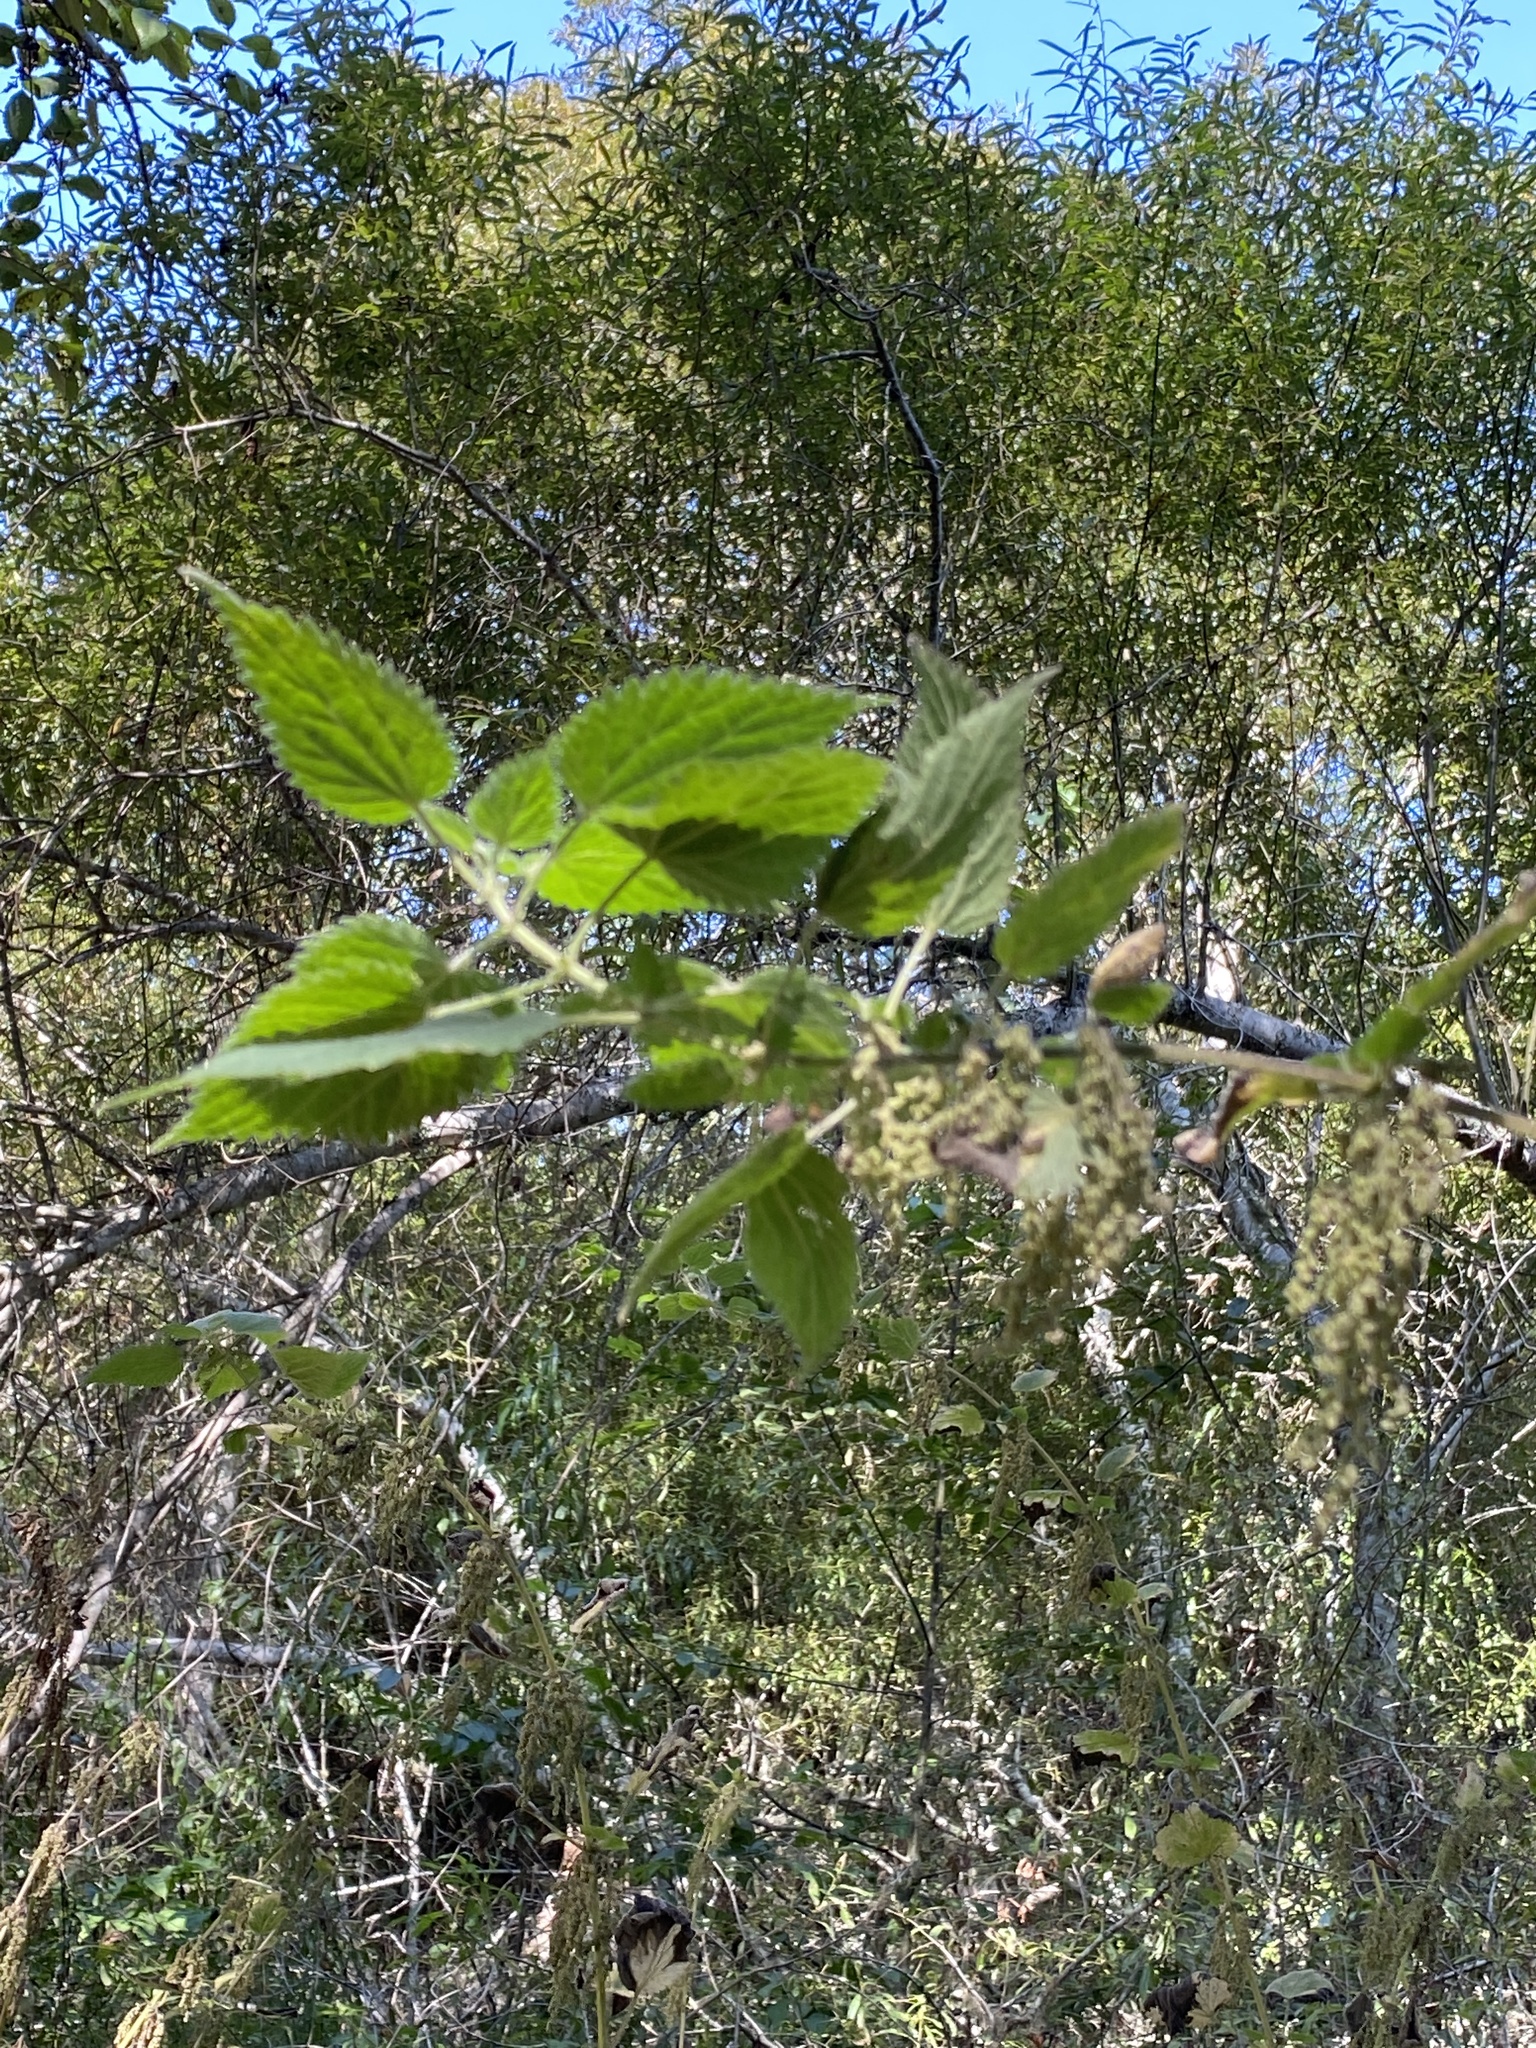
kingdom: Plantae
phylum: Tracheophyta
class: Magnoliopsida
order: Rosales
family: Urticaceae
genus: Urtica
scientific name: Urtica dioica
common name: Common nettle
